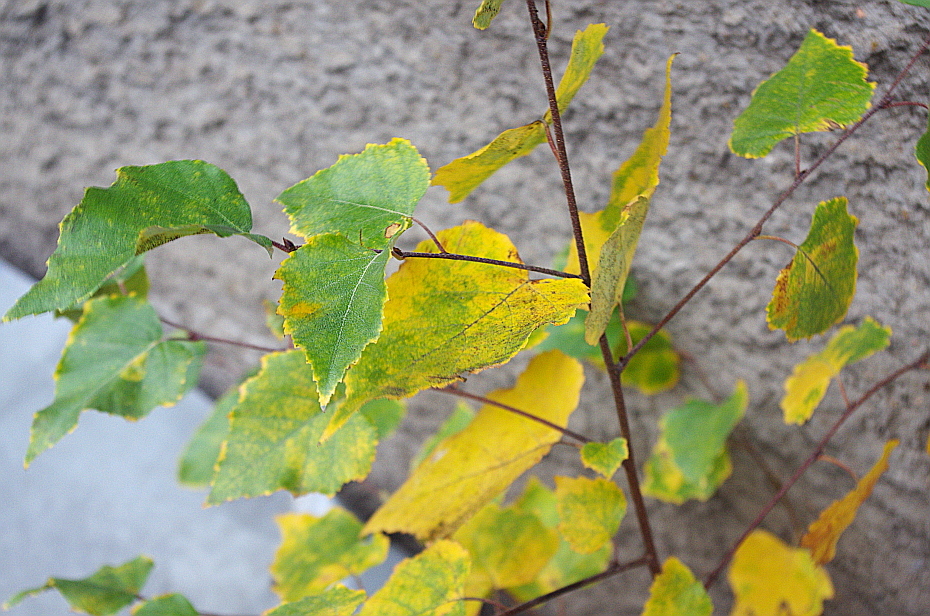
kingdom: Plantae
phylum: Tracheophyta
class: Magnoliopsida
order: Fagales
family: Betulaceae
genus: Betula
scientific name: Betula pendula
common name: Silver birch
